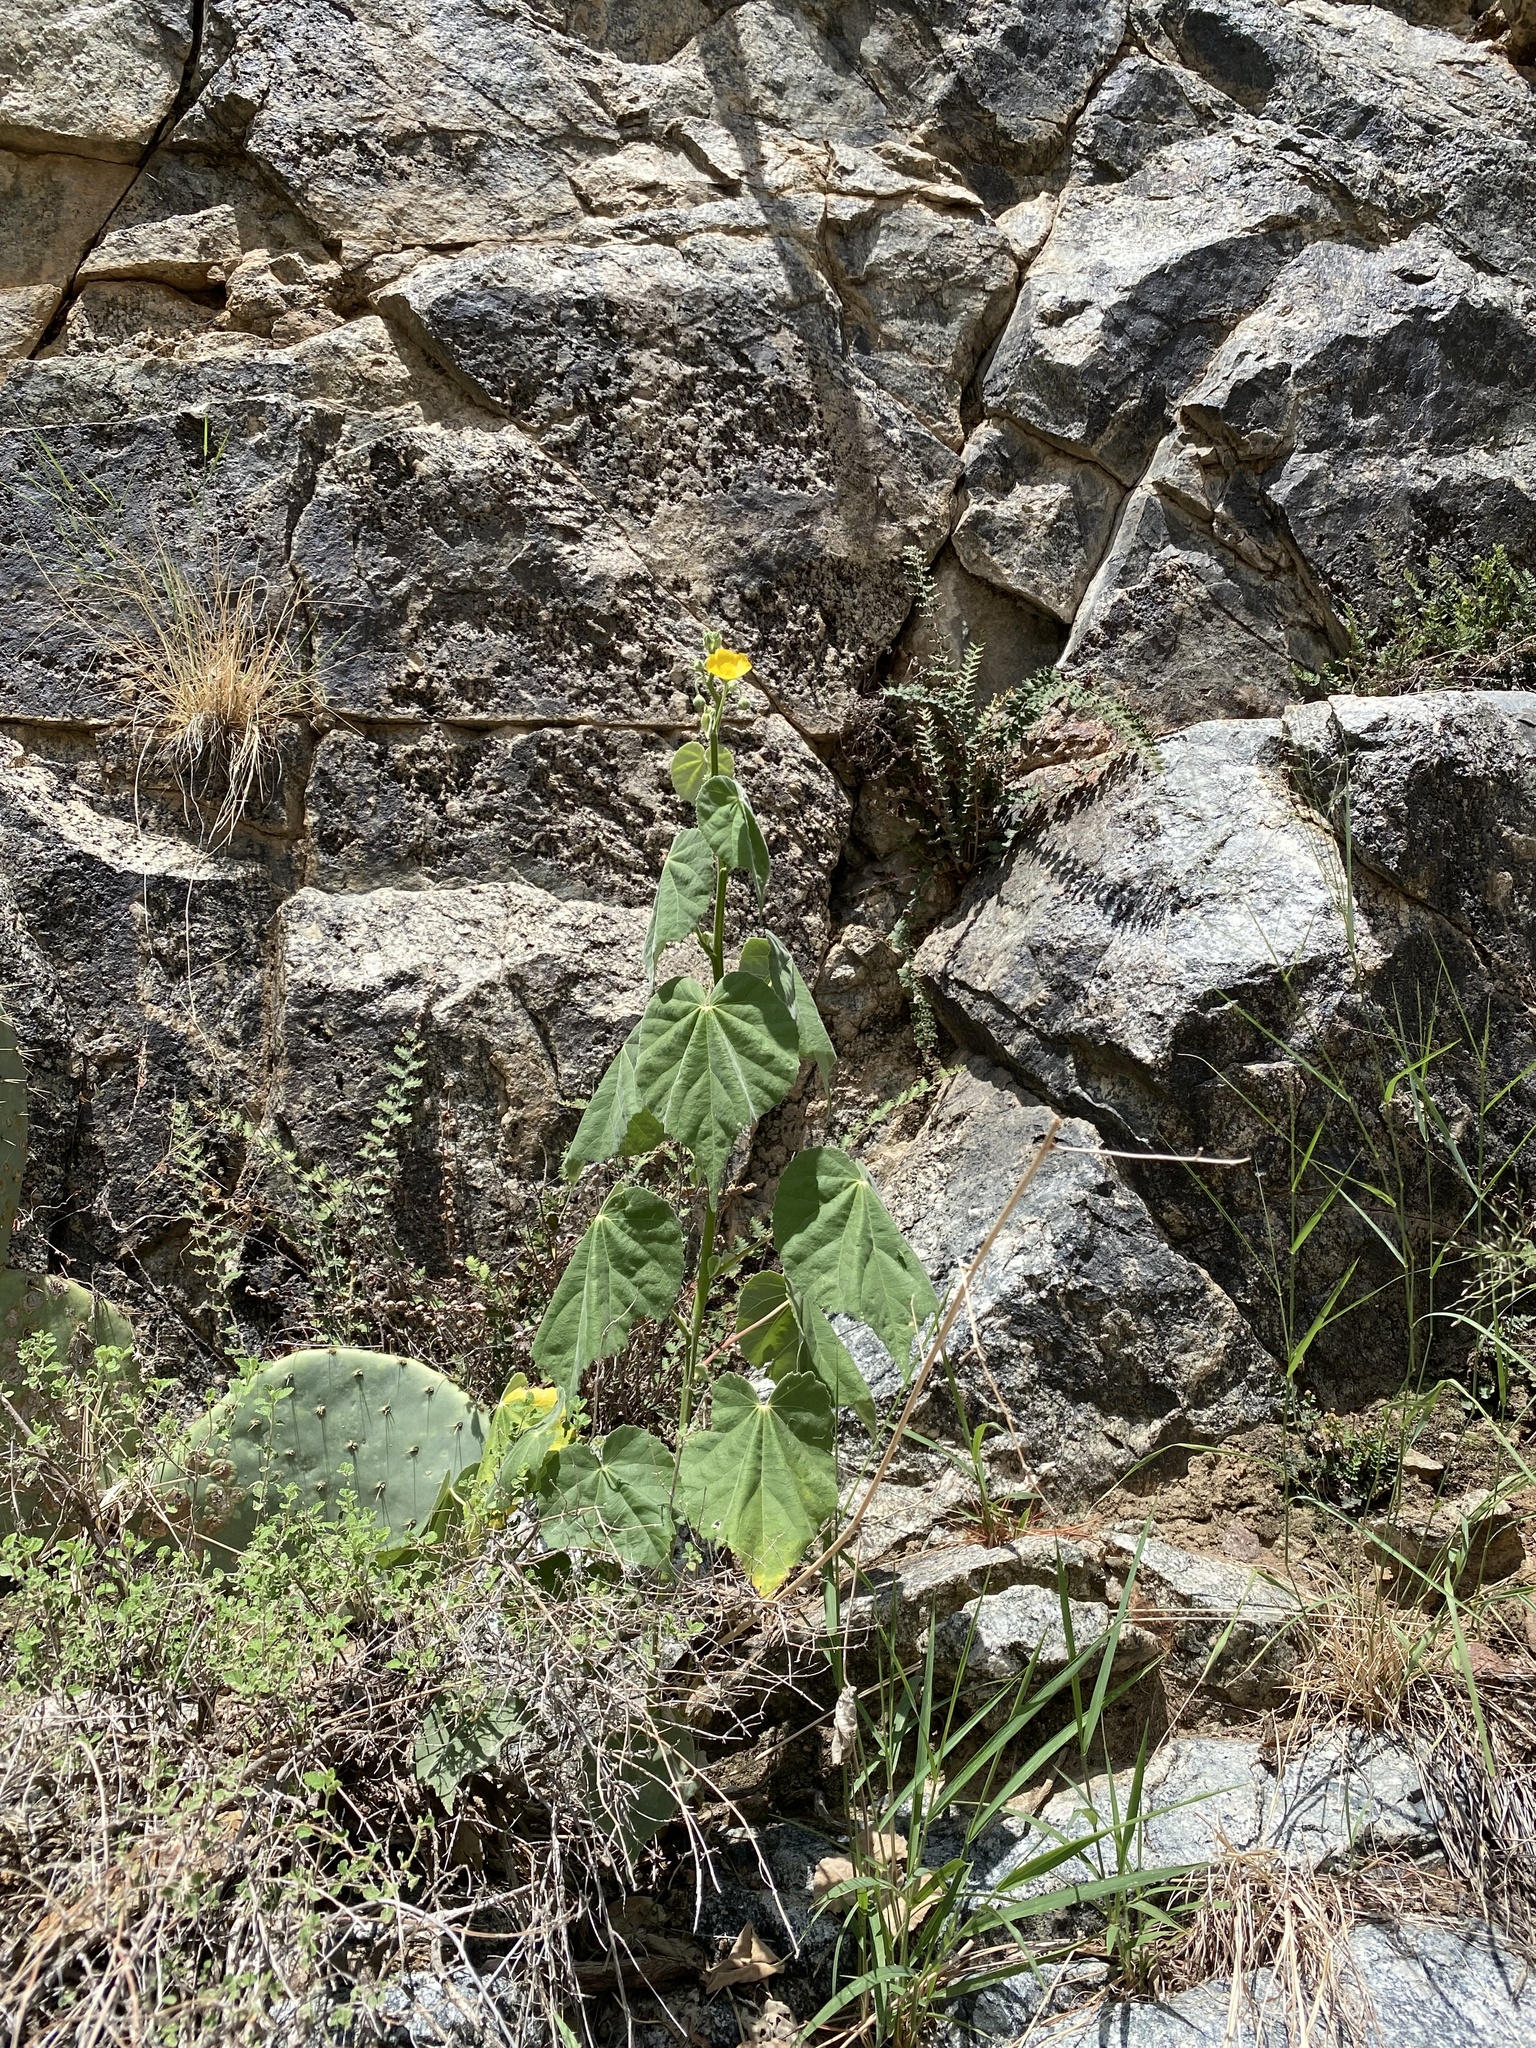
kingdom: Plantae
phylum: Tracheophyta
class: Magnoliopsida
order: Malvales
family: Malvaceae
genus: Abutilon
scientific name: Abutilon reventum
